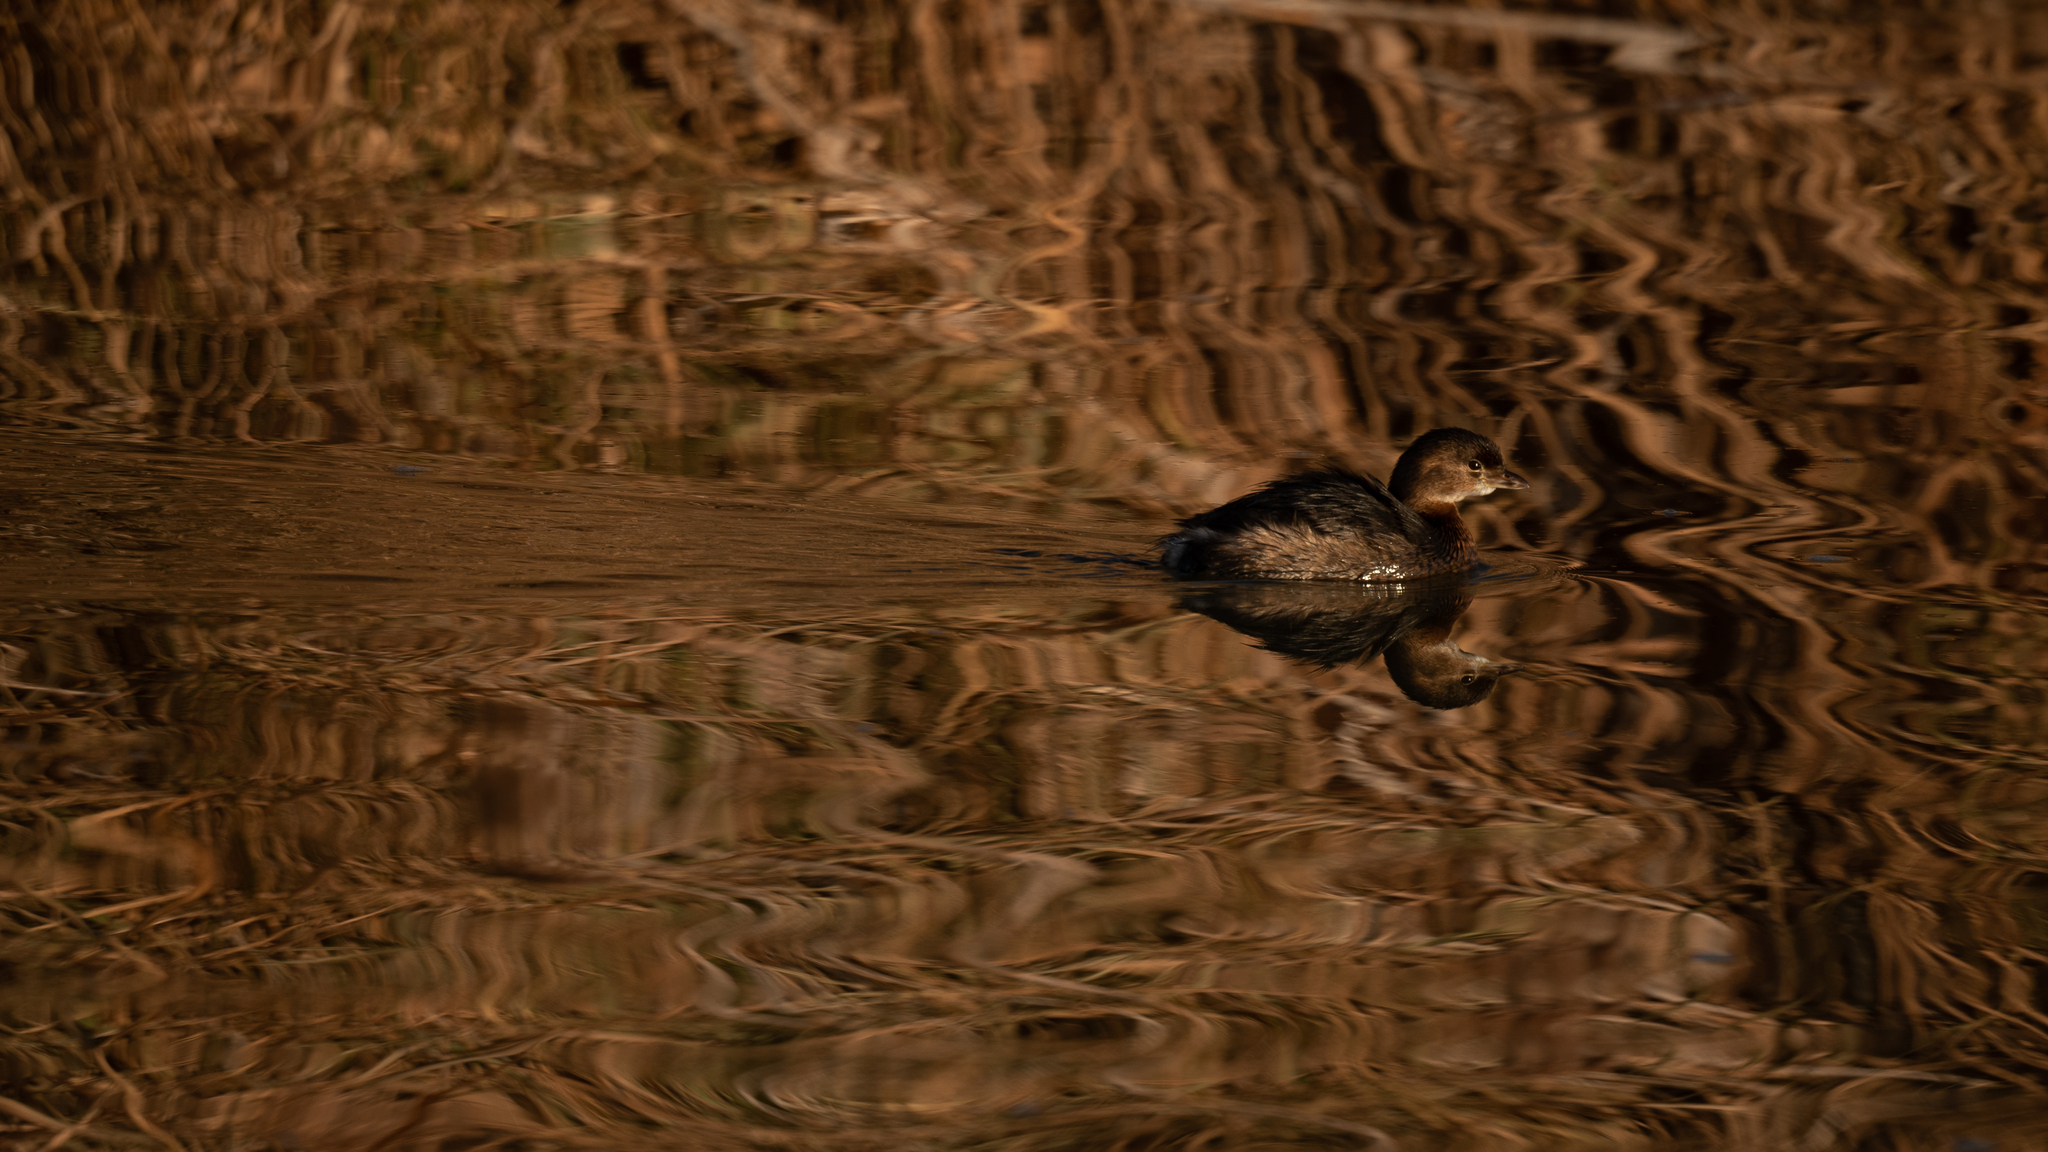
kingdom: Animalia
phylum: Chordata
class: Aves
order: Podicipediformes
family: Podicipedidae
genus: Podilymbus
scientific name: Podilymbus podiceps
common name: Pied-billed grebe
